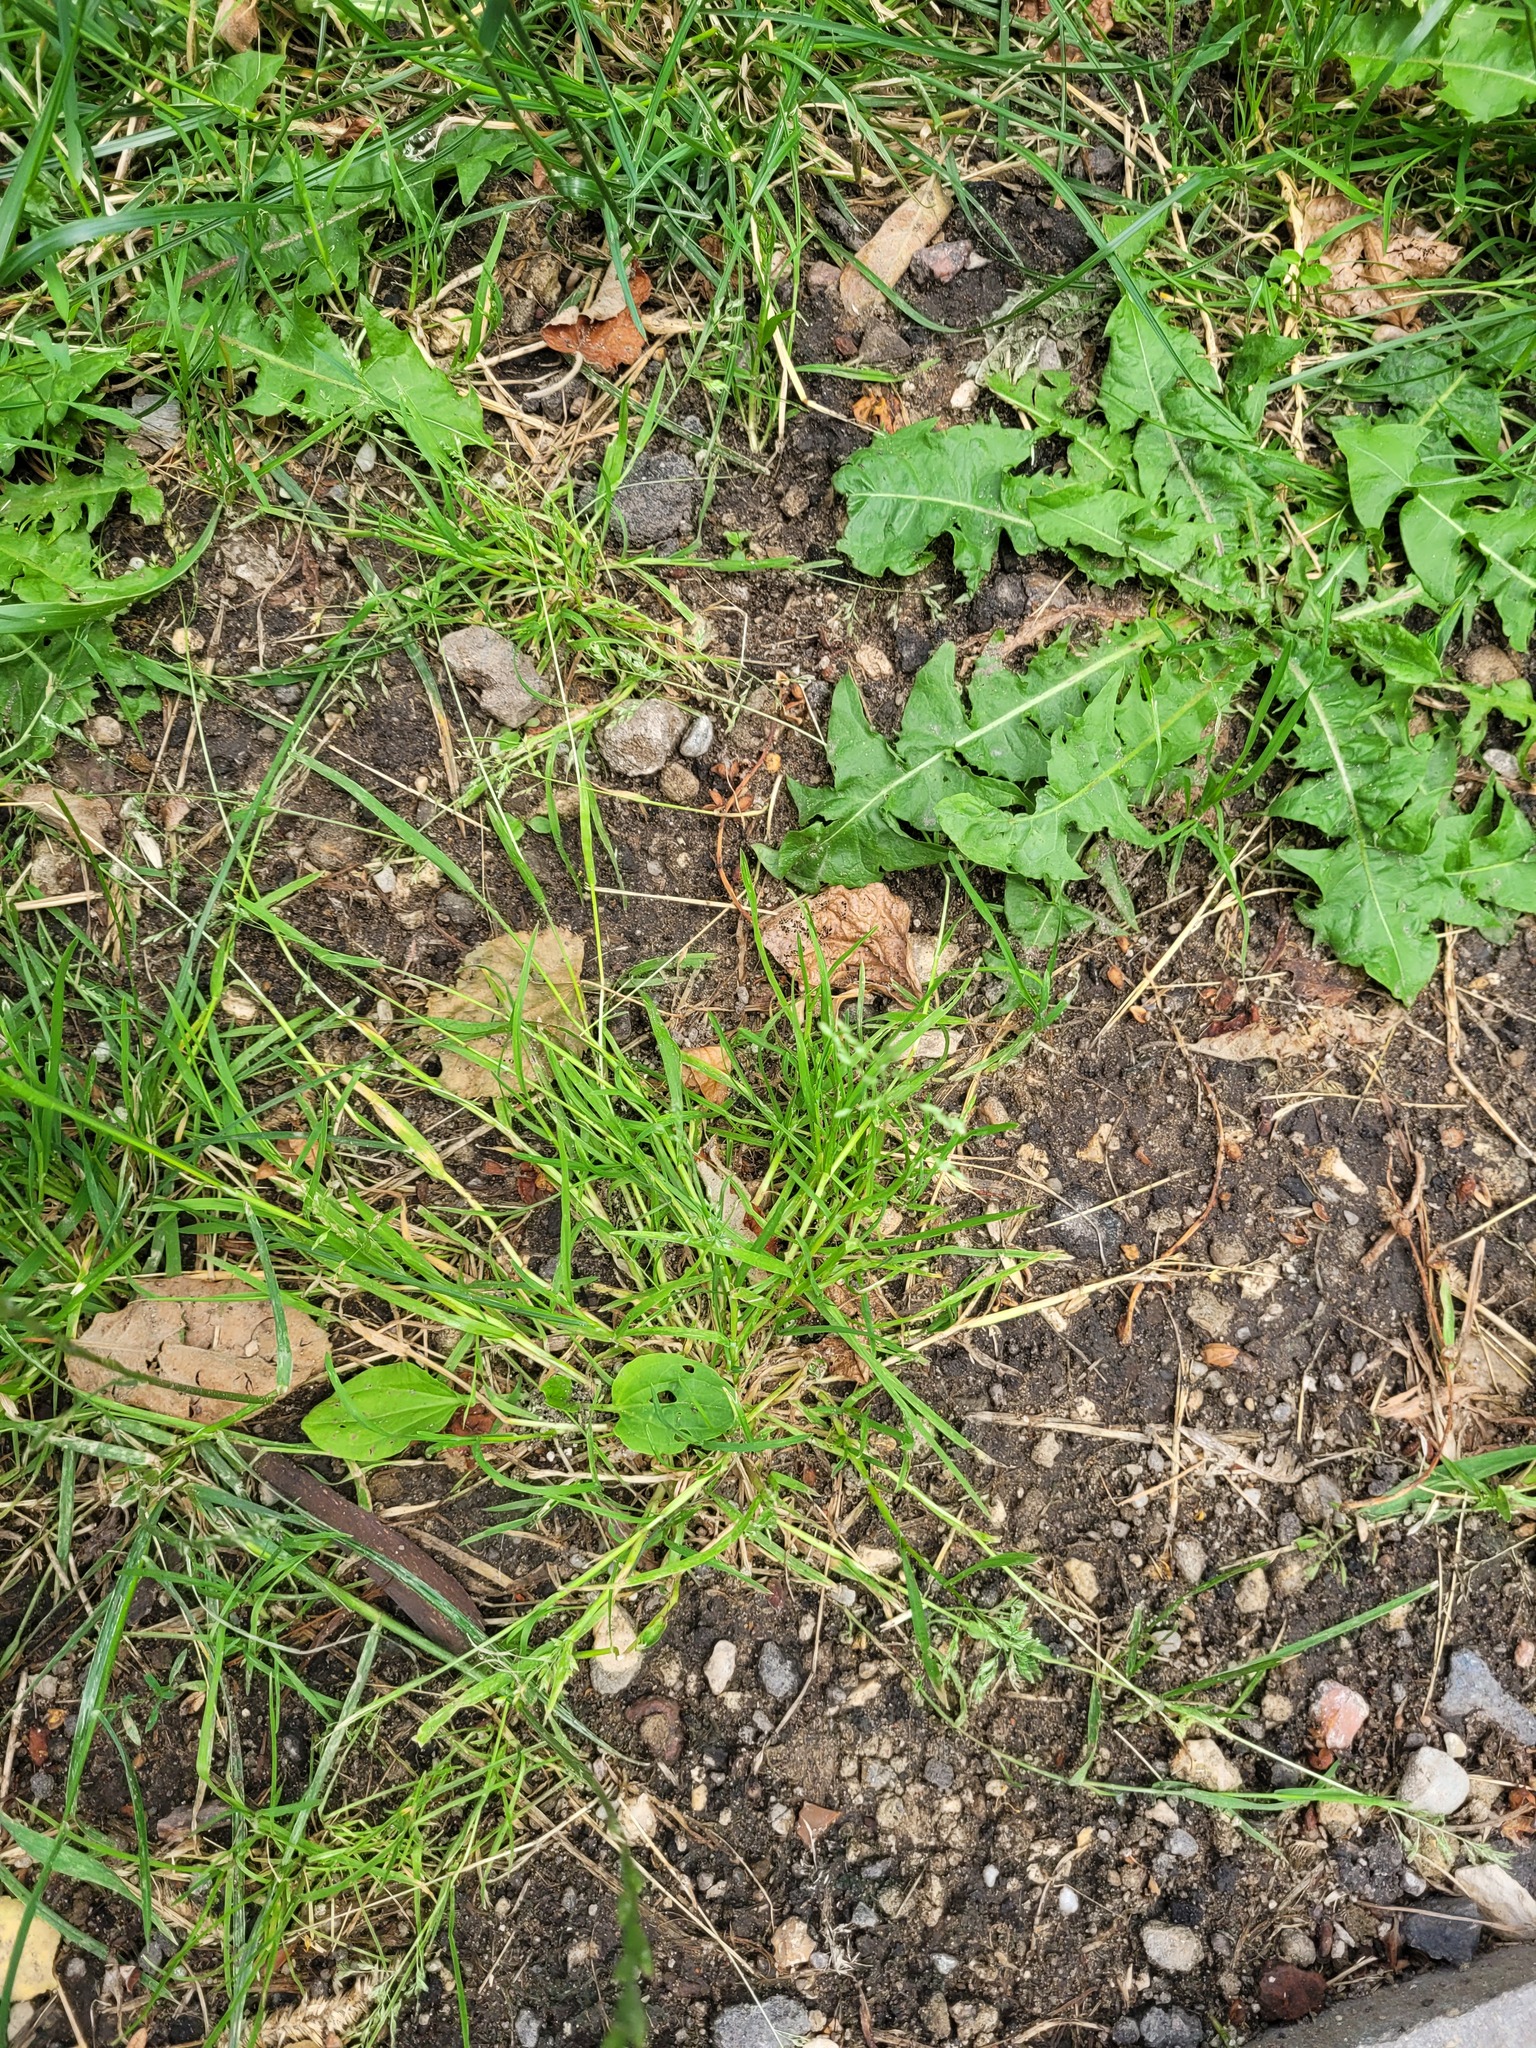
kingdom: Plantae
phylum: Tracheophyta
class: Liliopsida
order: Poales
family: Poaceae
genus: Poa
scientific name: Poa annua
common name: Annual bluegrass
